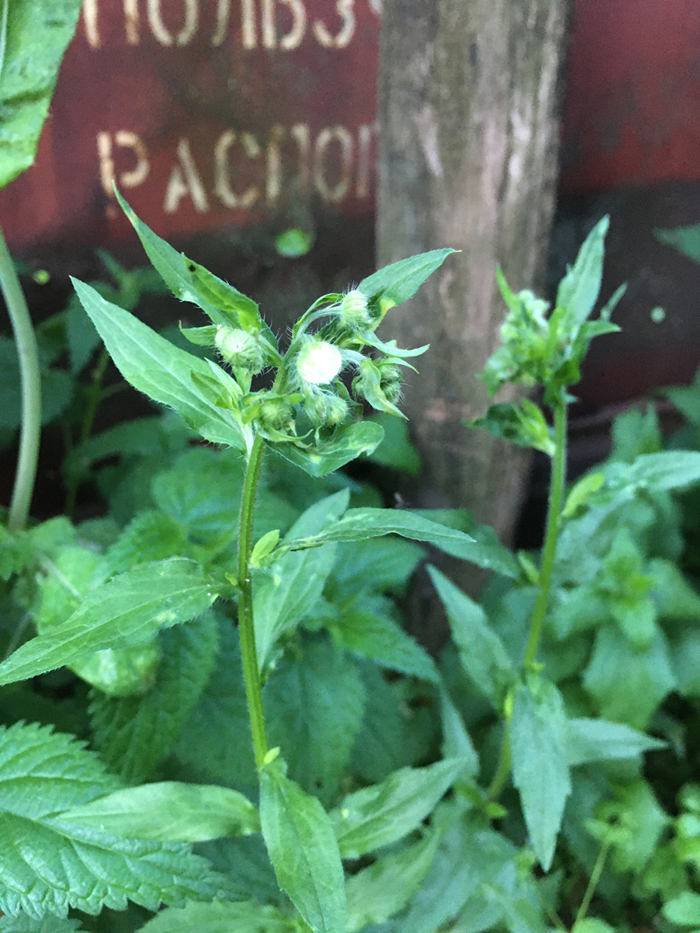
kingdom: Plantae
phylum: Tracheophyta
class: Magnoliopsida
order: Asterales
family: Asteraceae
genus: Erigeron
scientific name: Erigeron annuus
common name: Tall fleabane
